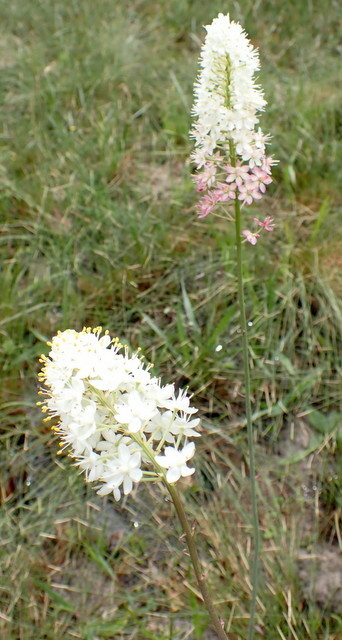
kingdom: Plantae
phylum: Tracheophyta
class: Liliopsida
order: Liliales
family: Melanthiaceae
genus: Stenanthium
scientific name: Stenanthium densum
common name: Crow-poison
